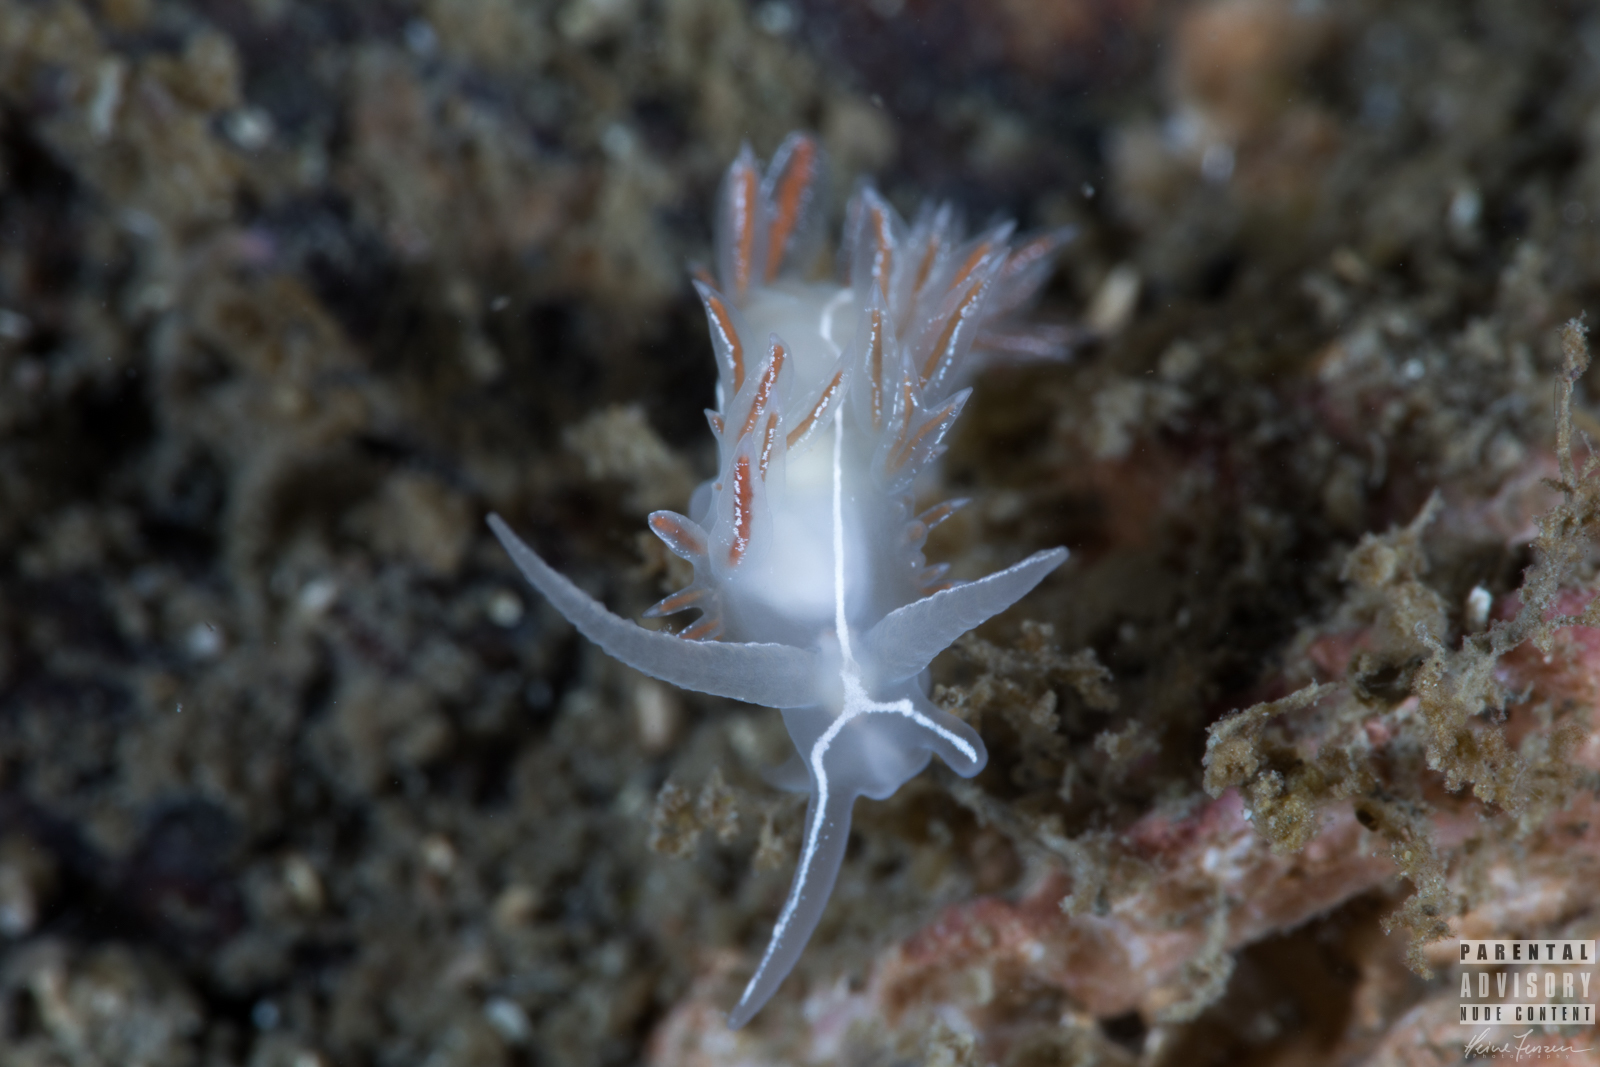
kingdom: Animalia
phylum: Mollusca
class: Gastropoda
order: Nudibranchia
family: Coryphellidae
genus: Coryphella
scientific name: Coryphella chriskaugei
